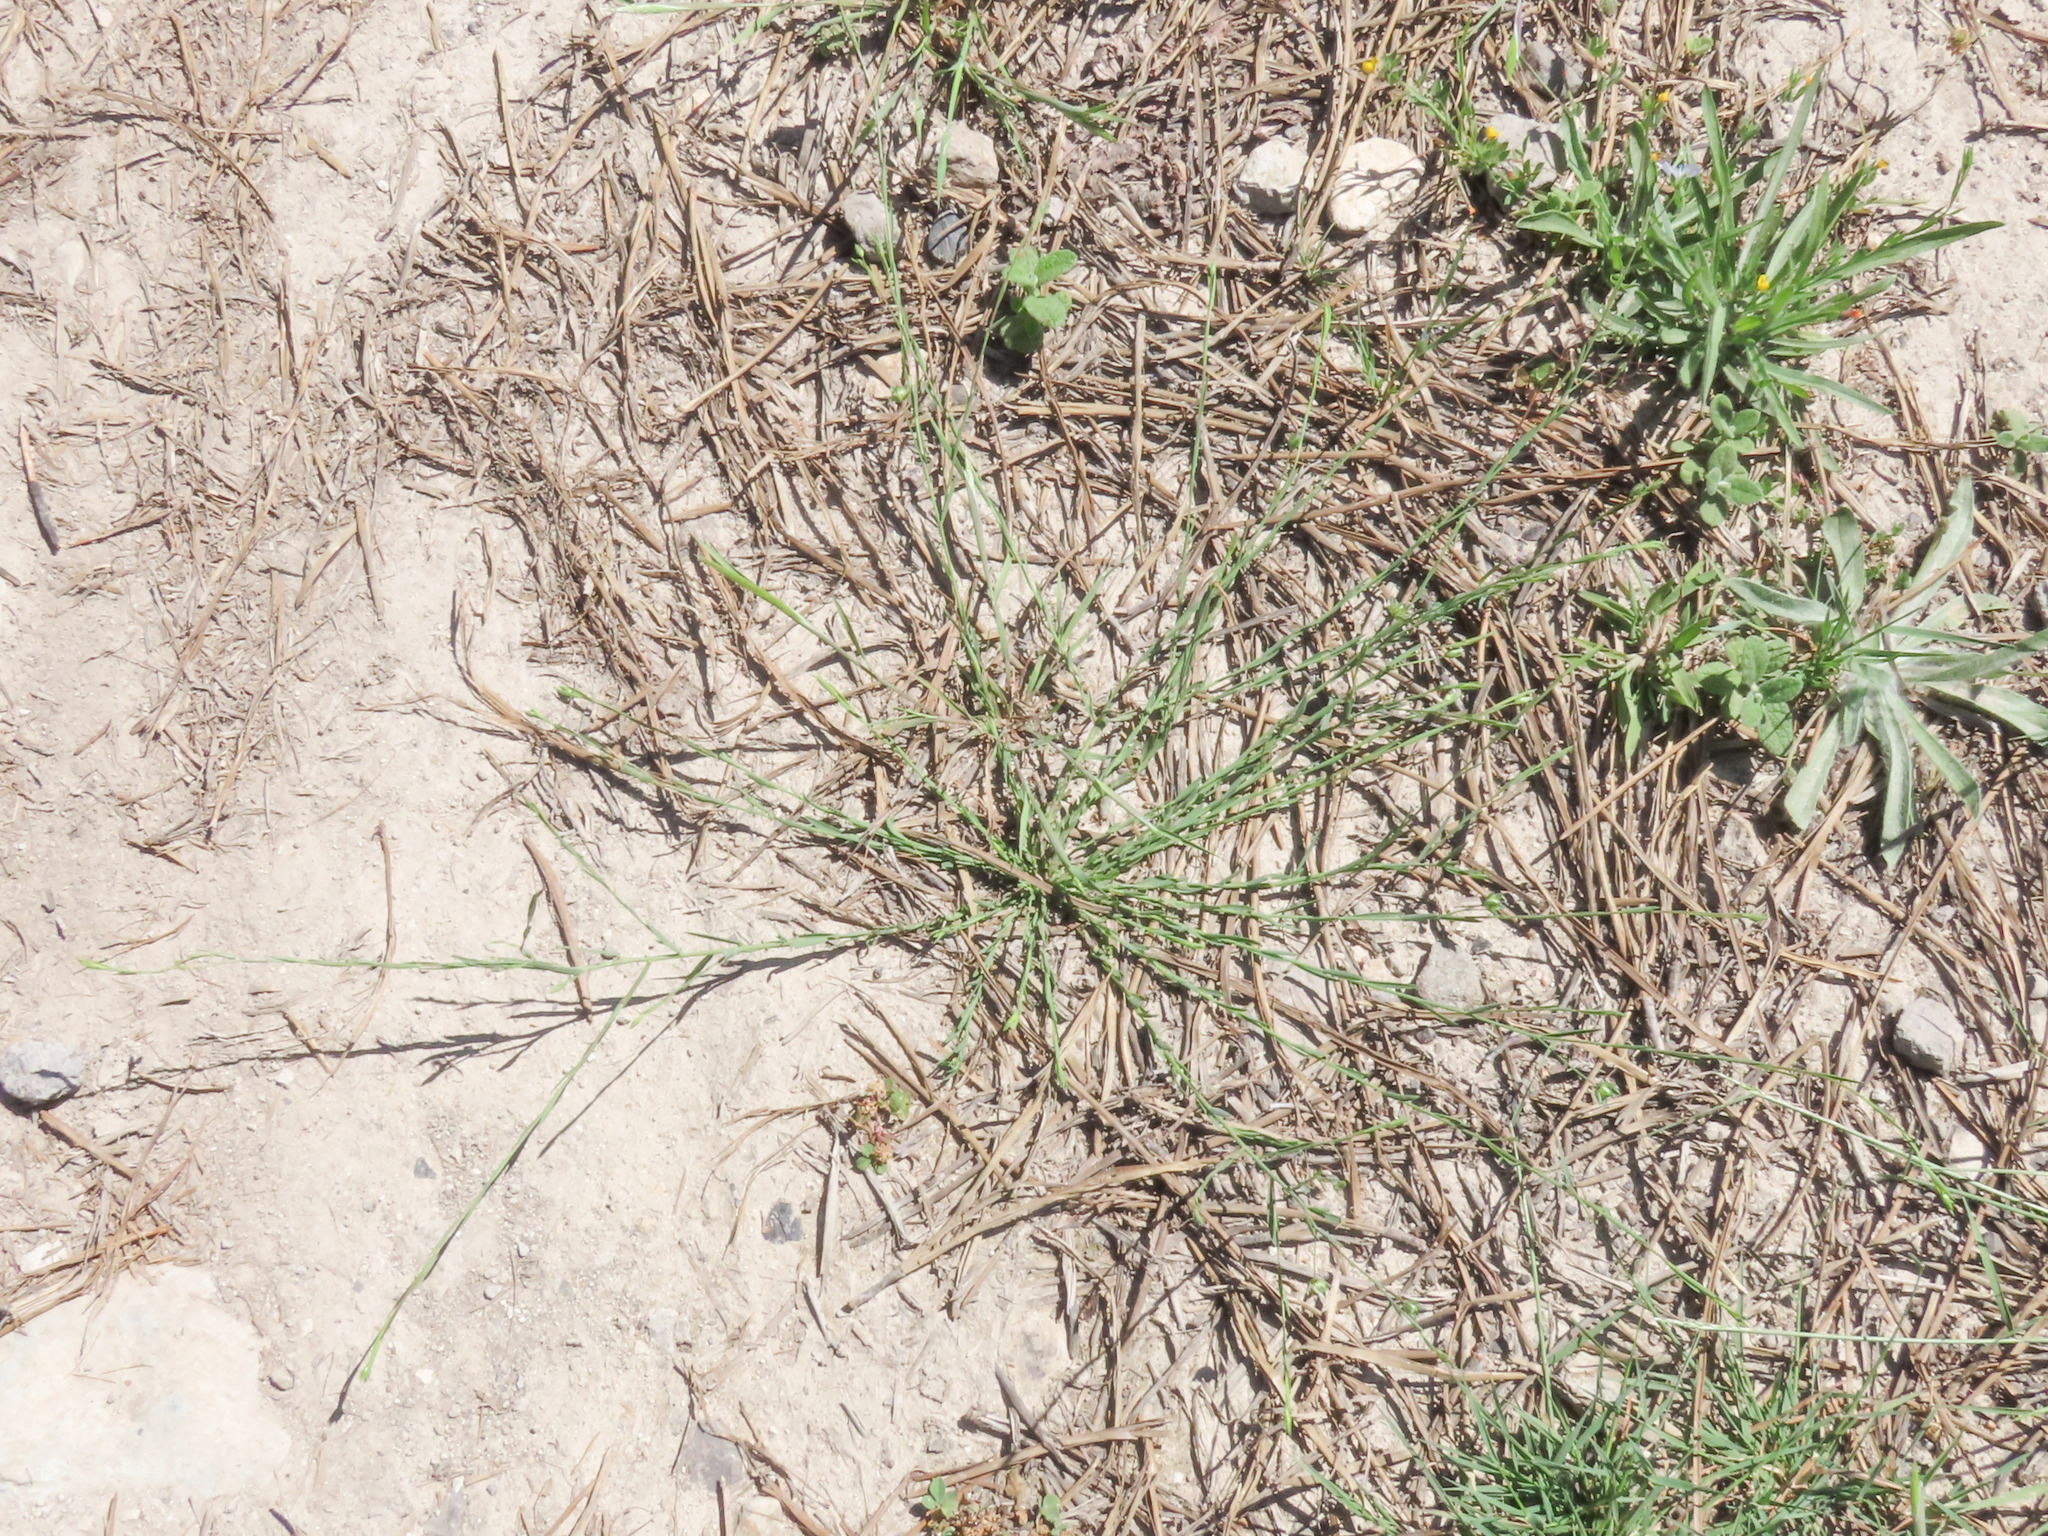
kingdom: Plantae
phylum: Tracheophyta
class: Magnoliopsida
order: Malpighiales
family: Linaceae
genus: Linum
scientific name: Linum bienne
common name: Pale flax
